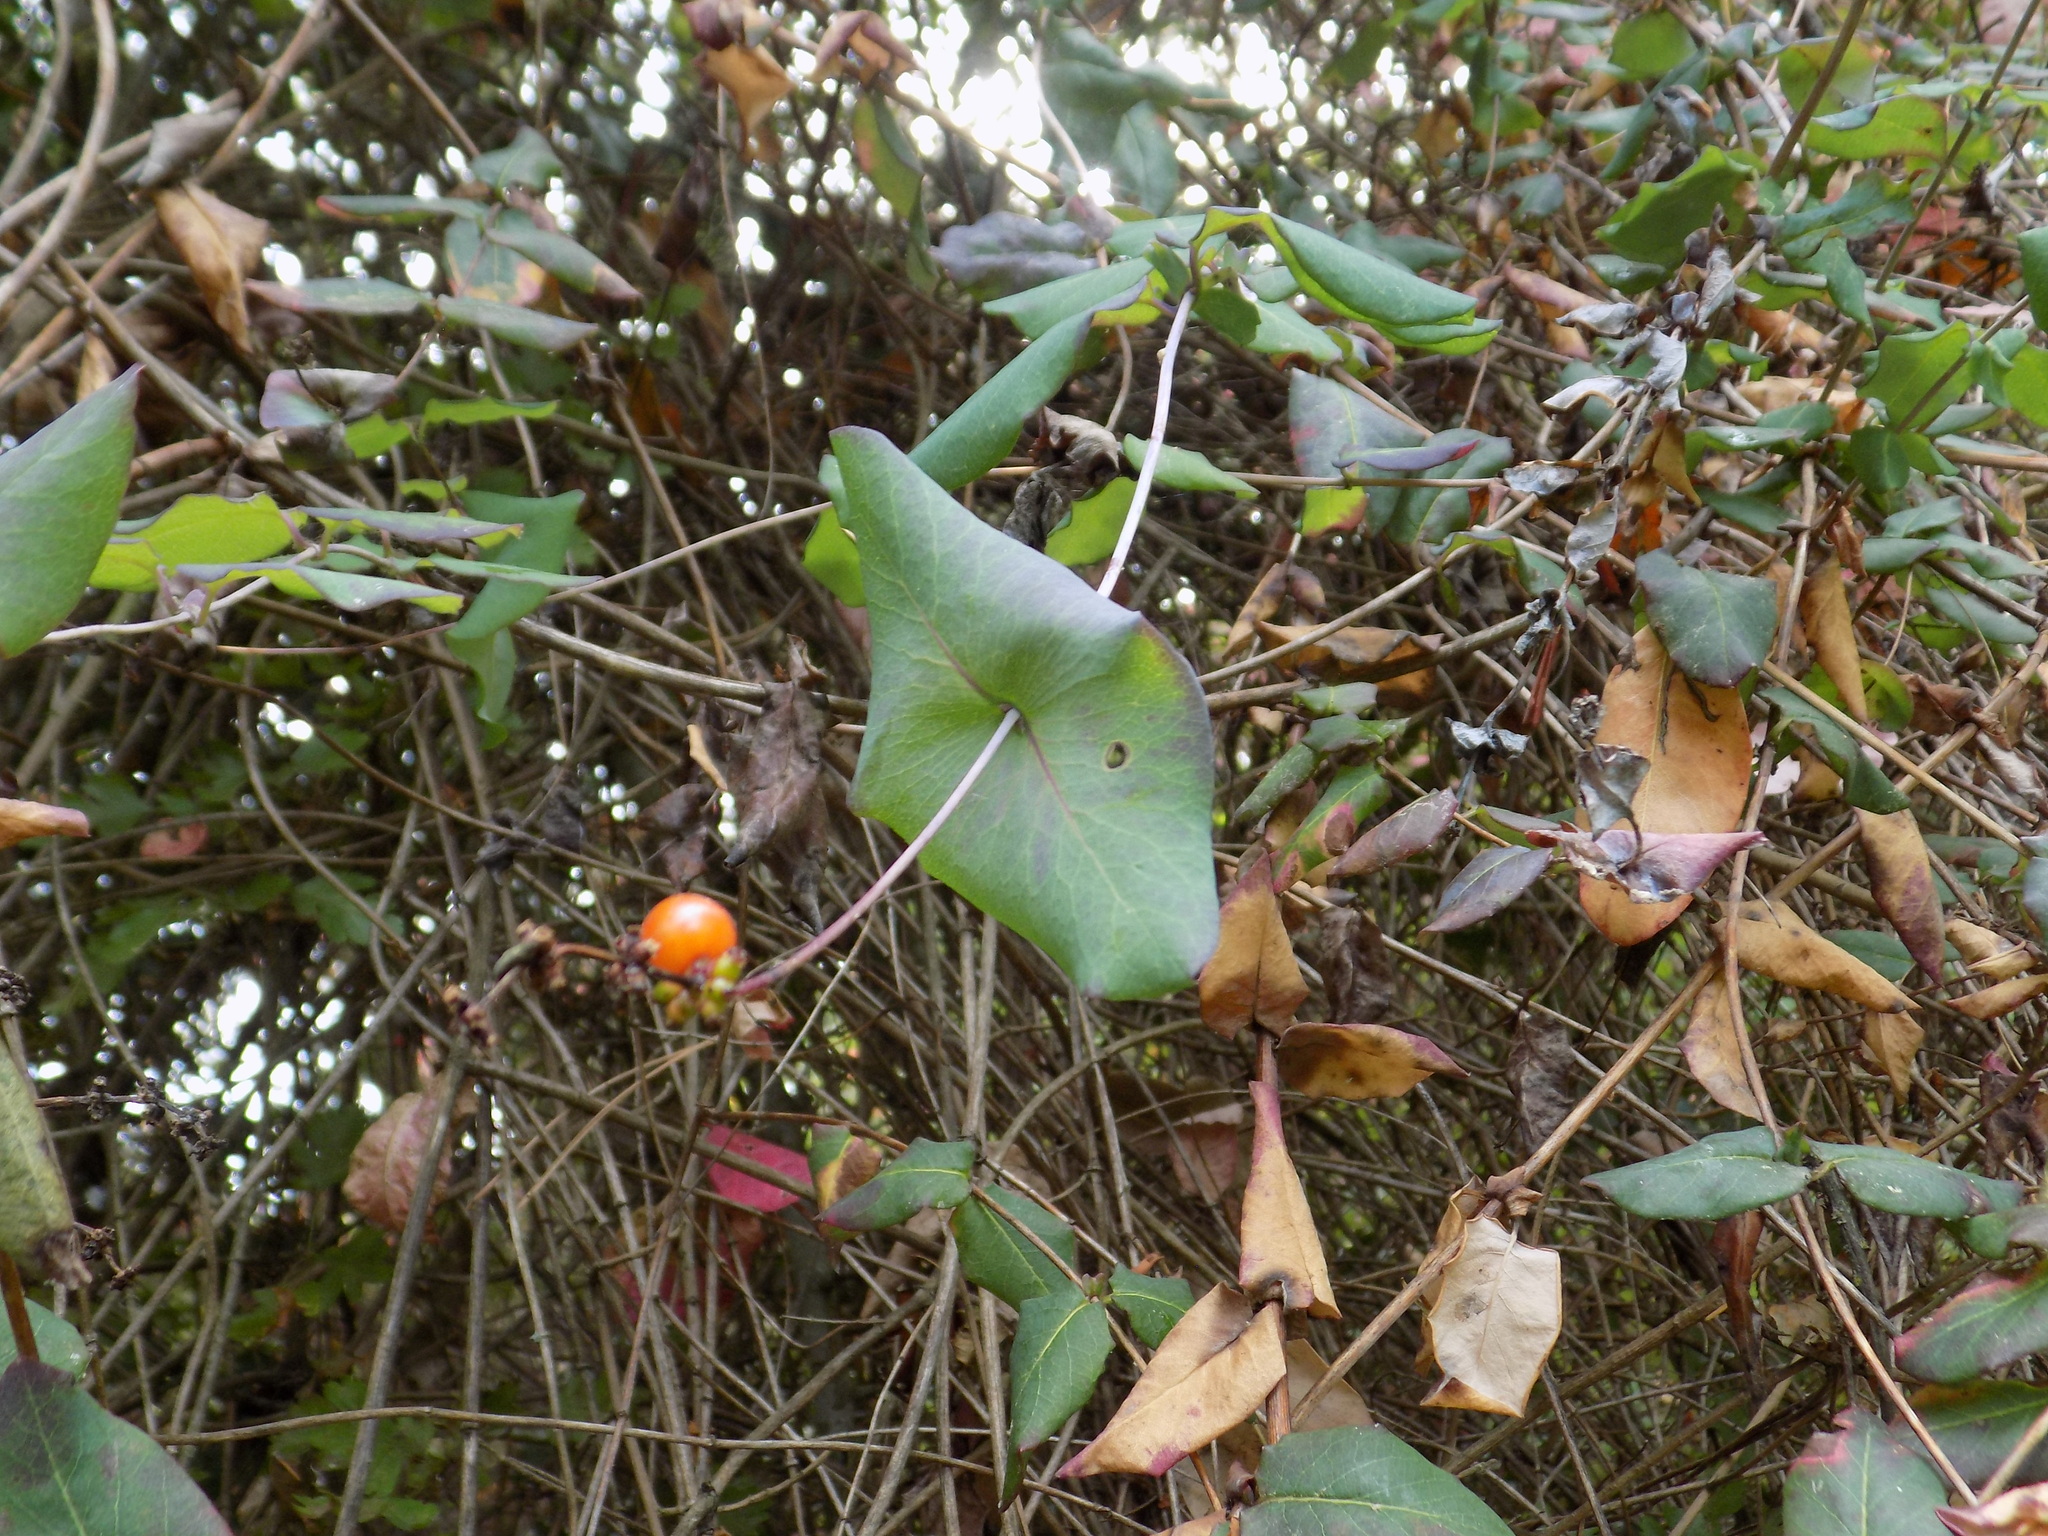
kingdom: Plantae
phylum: Tracheophyta
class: Magnoliopsida
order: Dipsacales
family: Caprifoliaceae
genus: Lonicera
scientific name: Lonicera hispidula
